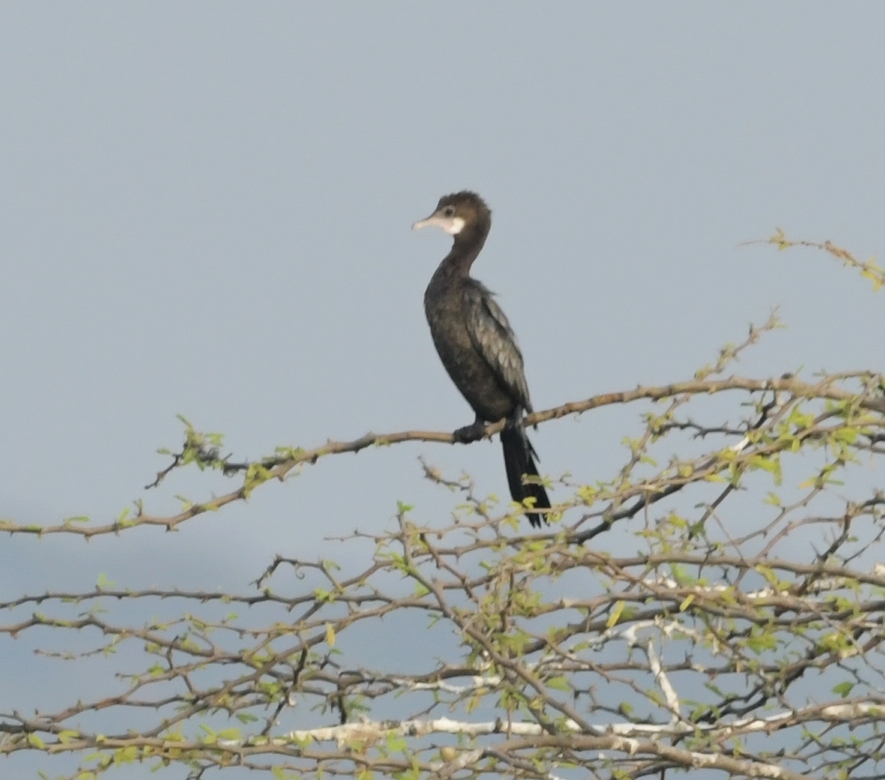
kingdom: Animalia
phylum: Chordata
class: Aves
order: Suliformes
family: Phalacrocoracidae
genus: Microcarbo
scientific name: Microcarbo niger
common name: Little cormorant
